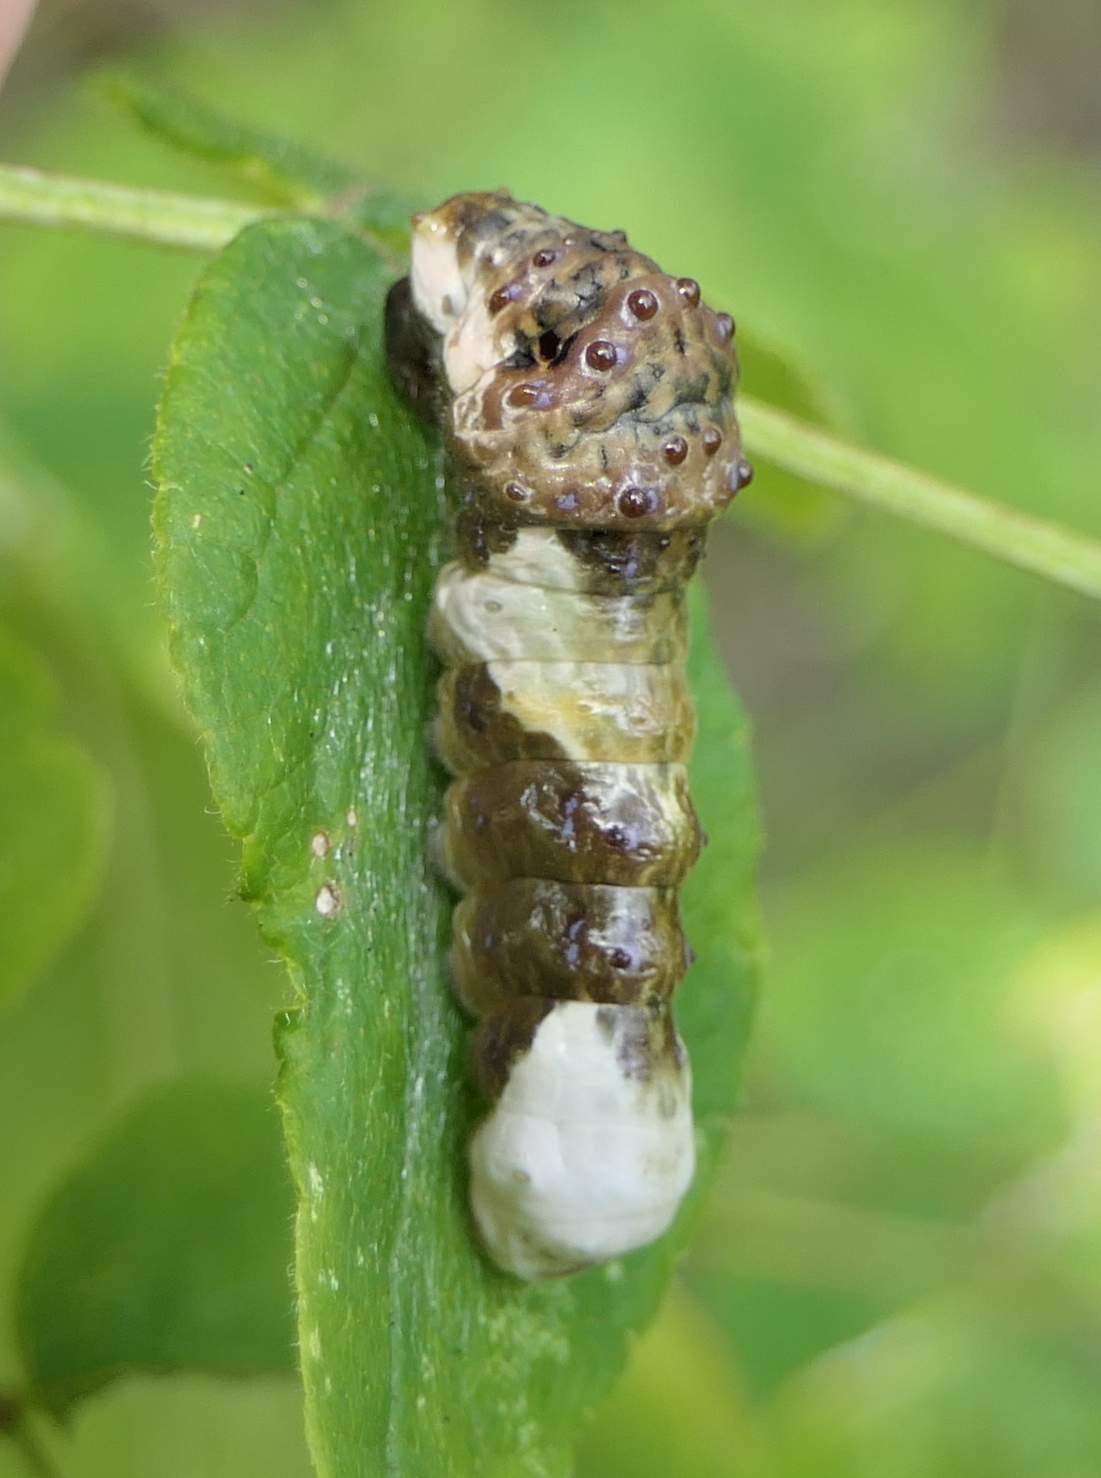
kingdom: Animalia
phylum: Arthropoda
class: Insecta
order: Lepidoptera
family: Papilionidae
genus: Papilio
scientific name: Papilio cresphontes
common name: Giant swallowtail
